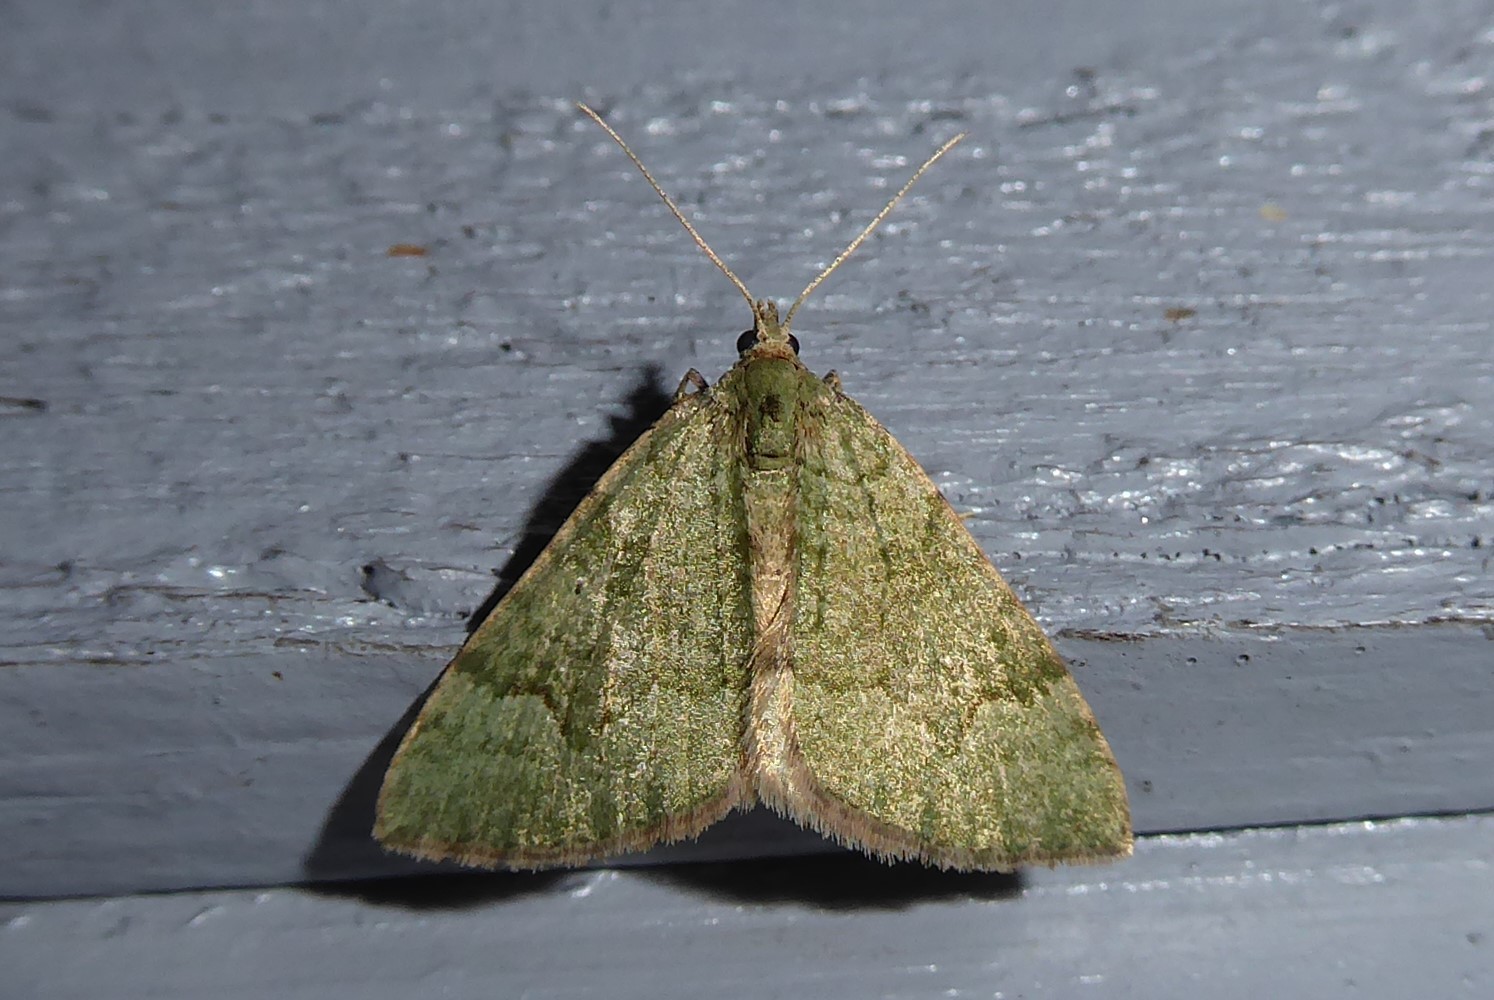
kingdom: Animalia
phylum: Arthropoda
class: Insecta
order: Lepidoptera
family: Geometridae
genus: Epyaxa
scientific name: Epyaxa rosearia
